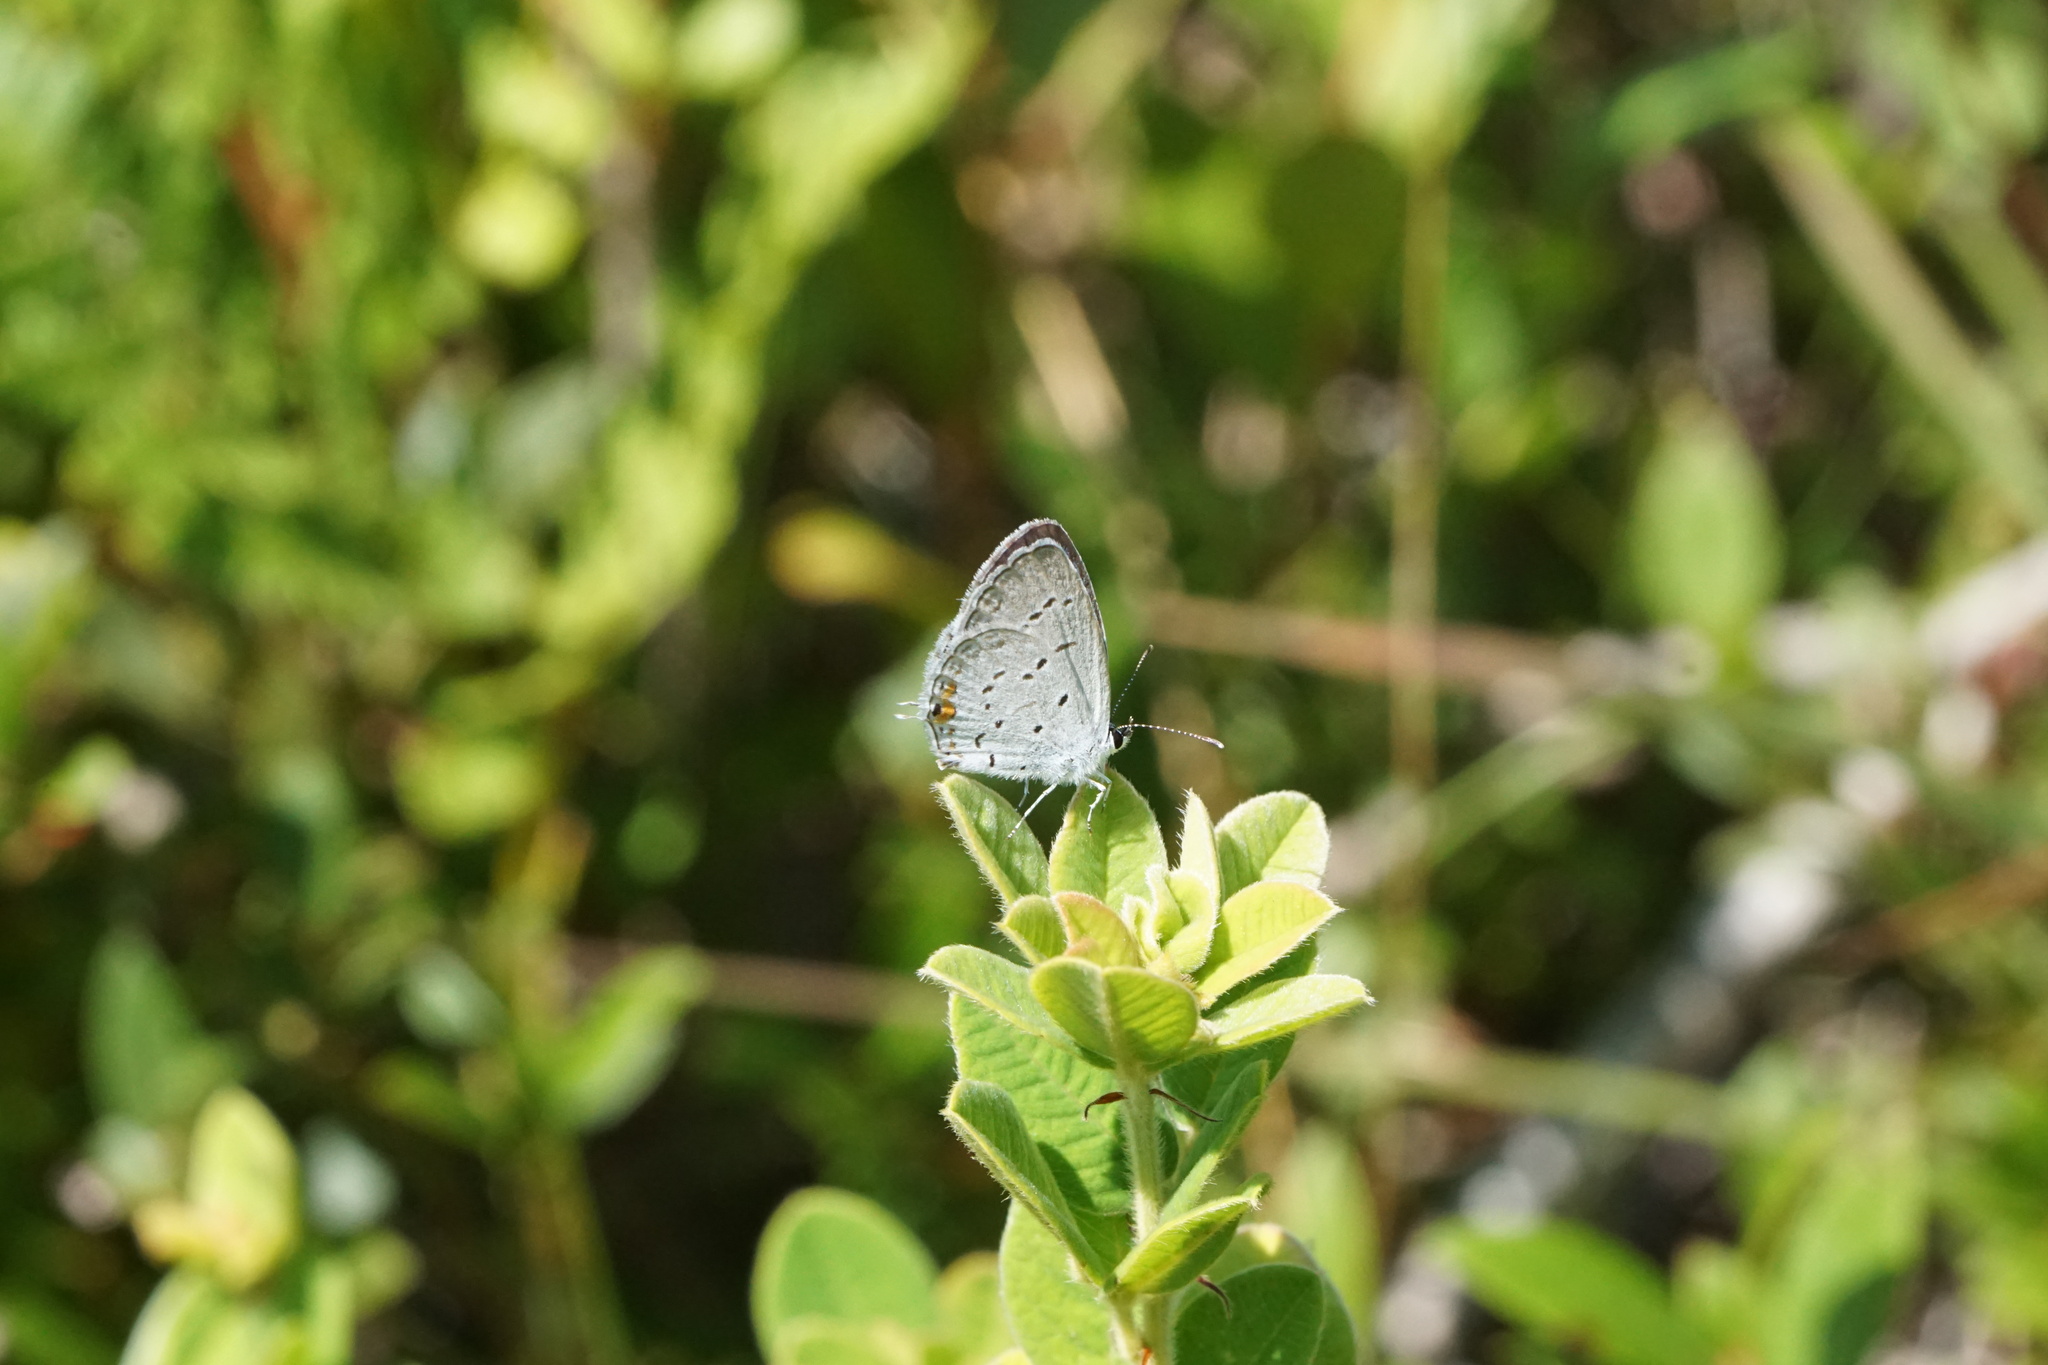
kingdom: Animalia
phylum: Arthropoda
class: Insecta
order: Lepidoptera
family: Lycaenidae
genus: Elkalyce
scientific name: Elkalyce comyntas
